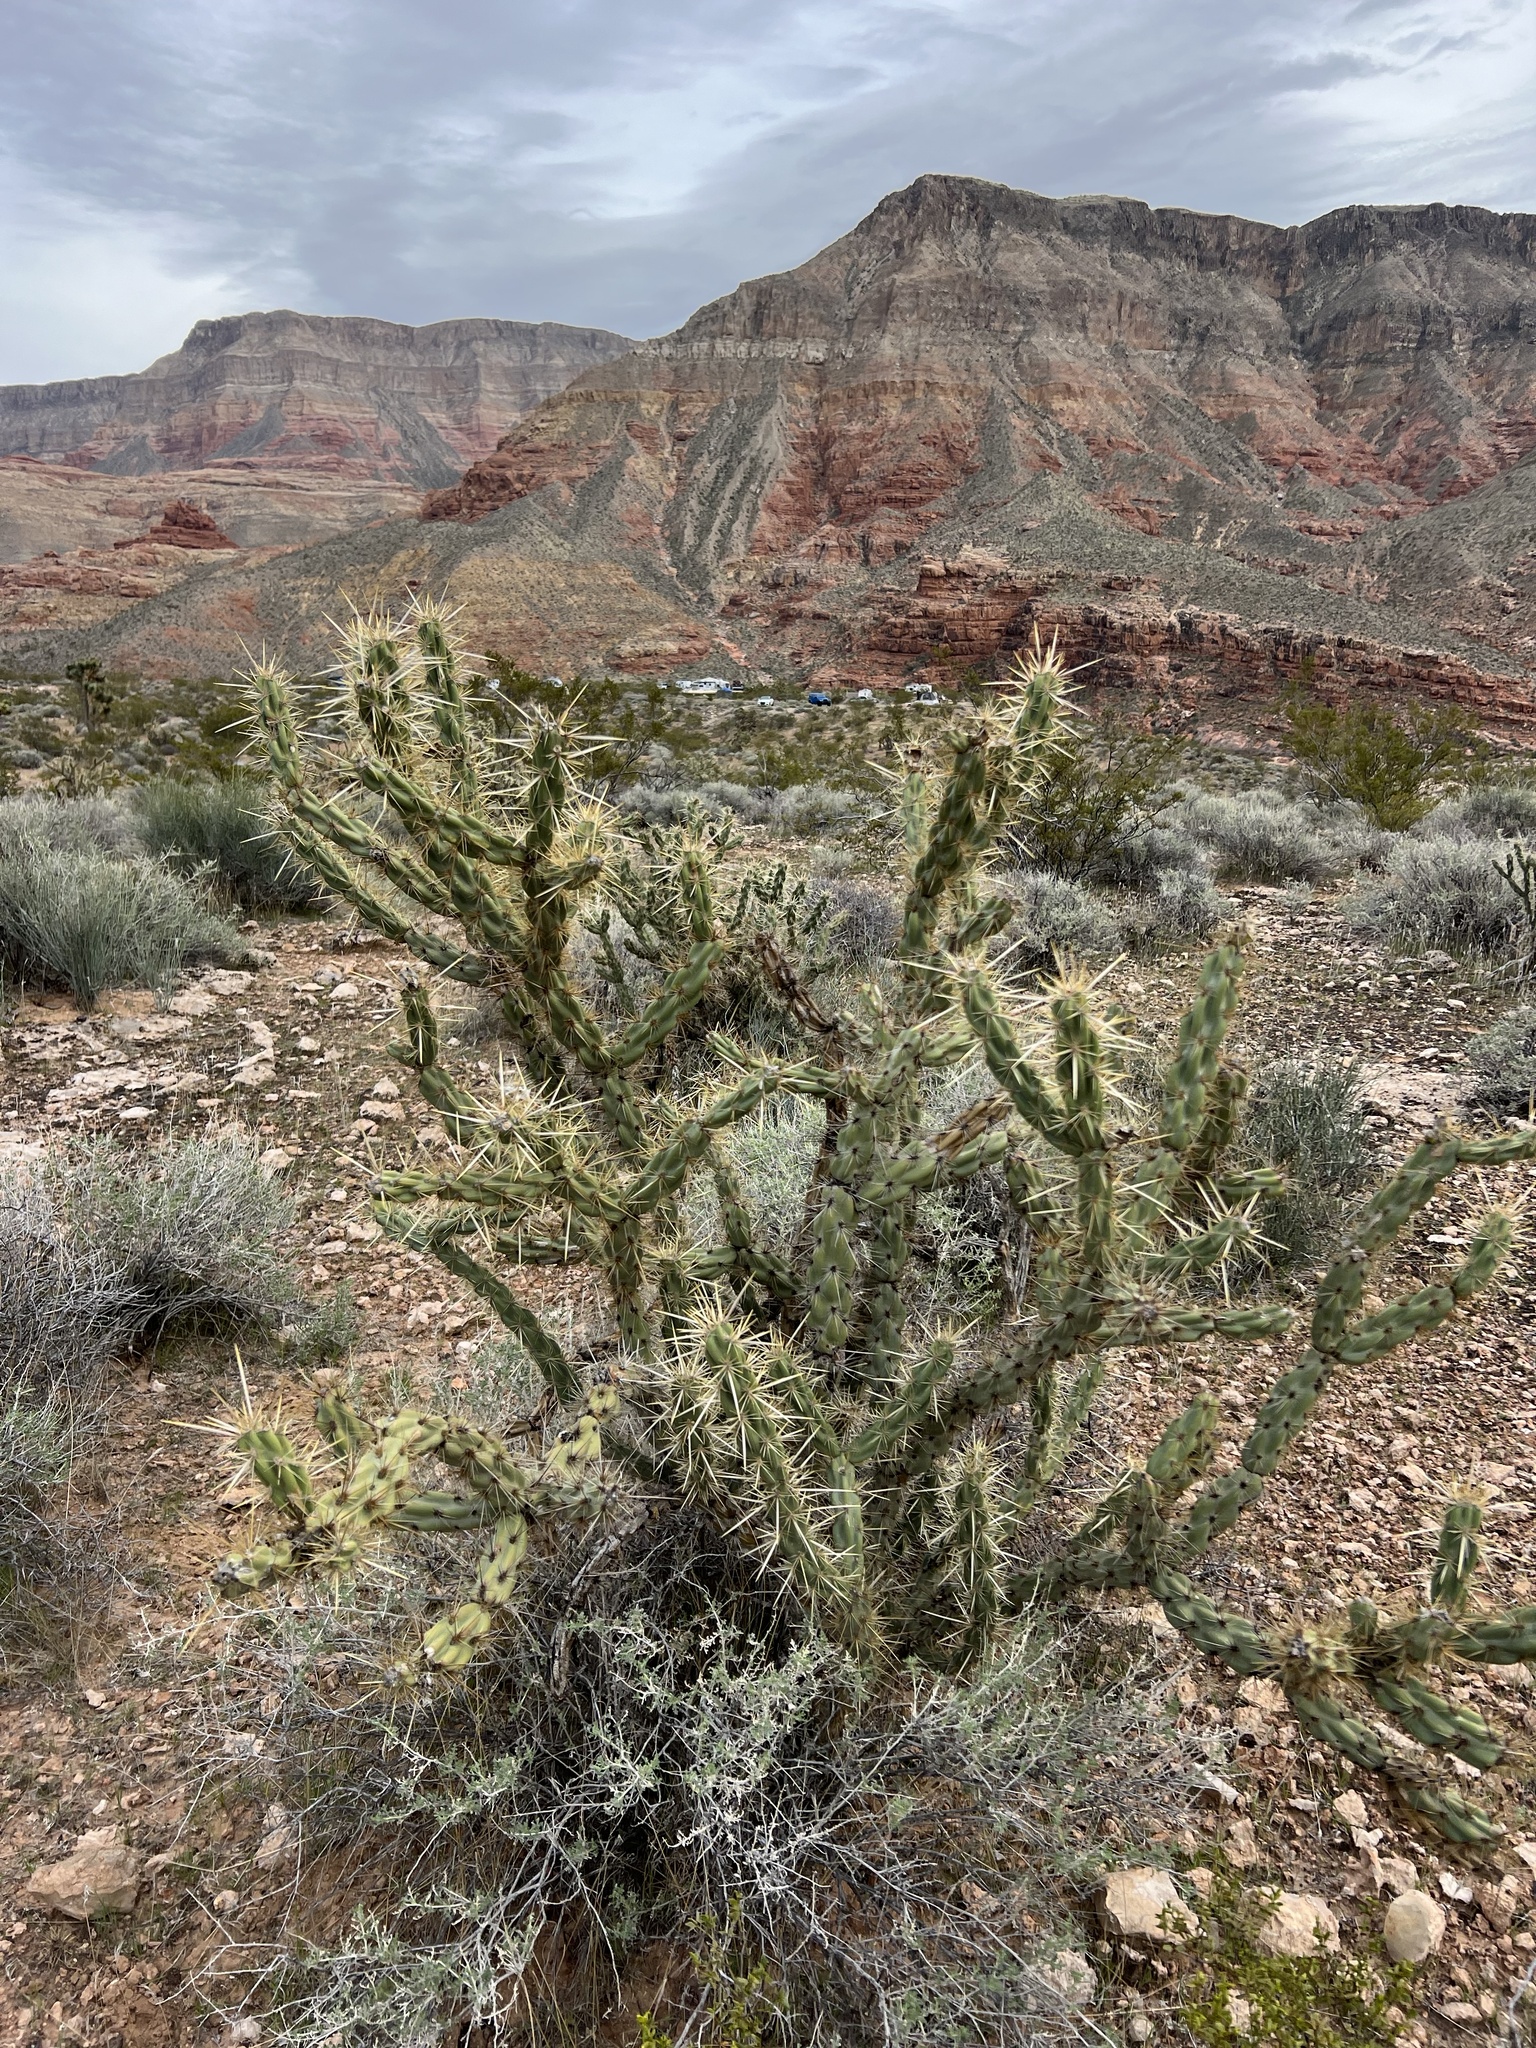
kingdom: Plantae
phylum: Tracheophyta
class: Magnoliopsida
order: Caryophyllales
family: Cactaceae
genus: Cylindropuntia
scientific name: Cylindropuntia acanthocarpa
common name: Buckhorn cholla
